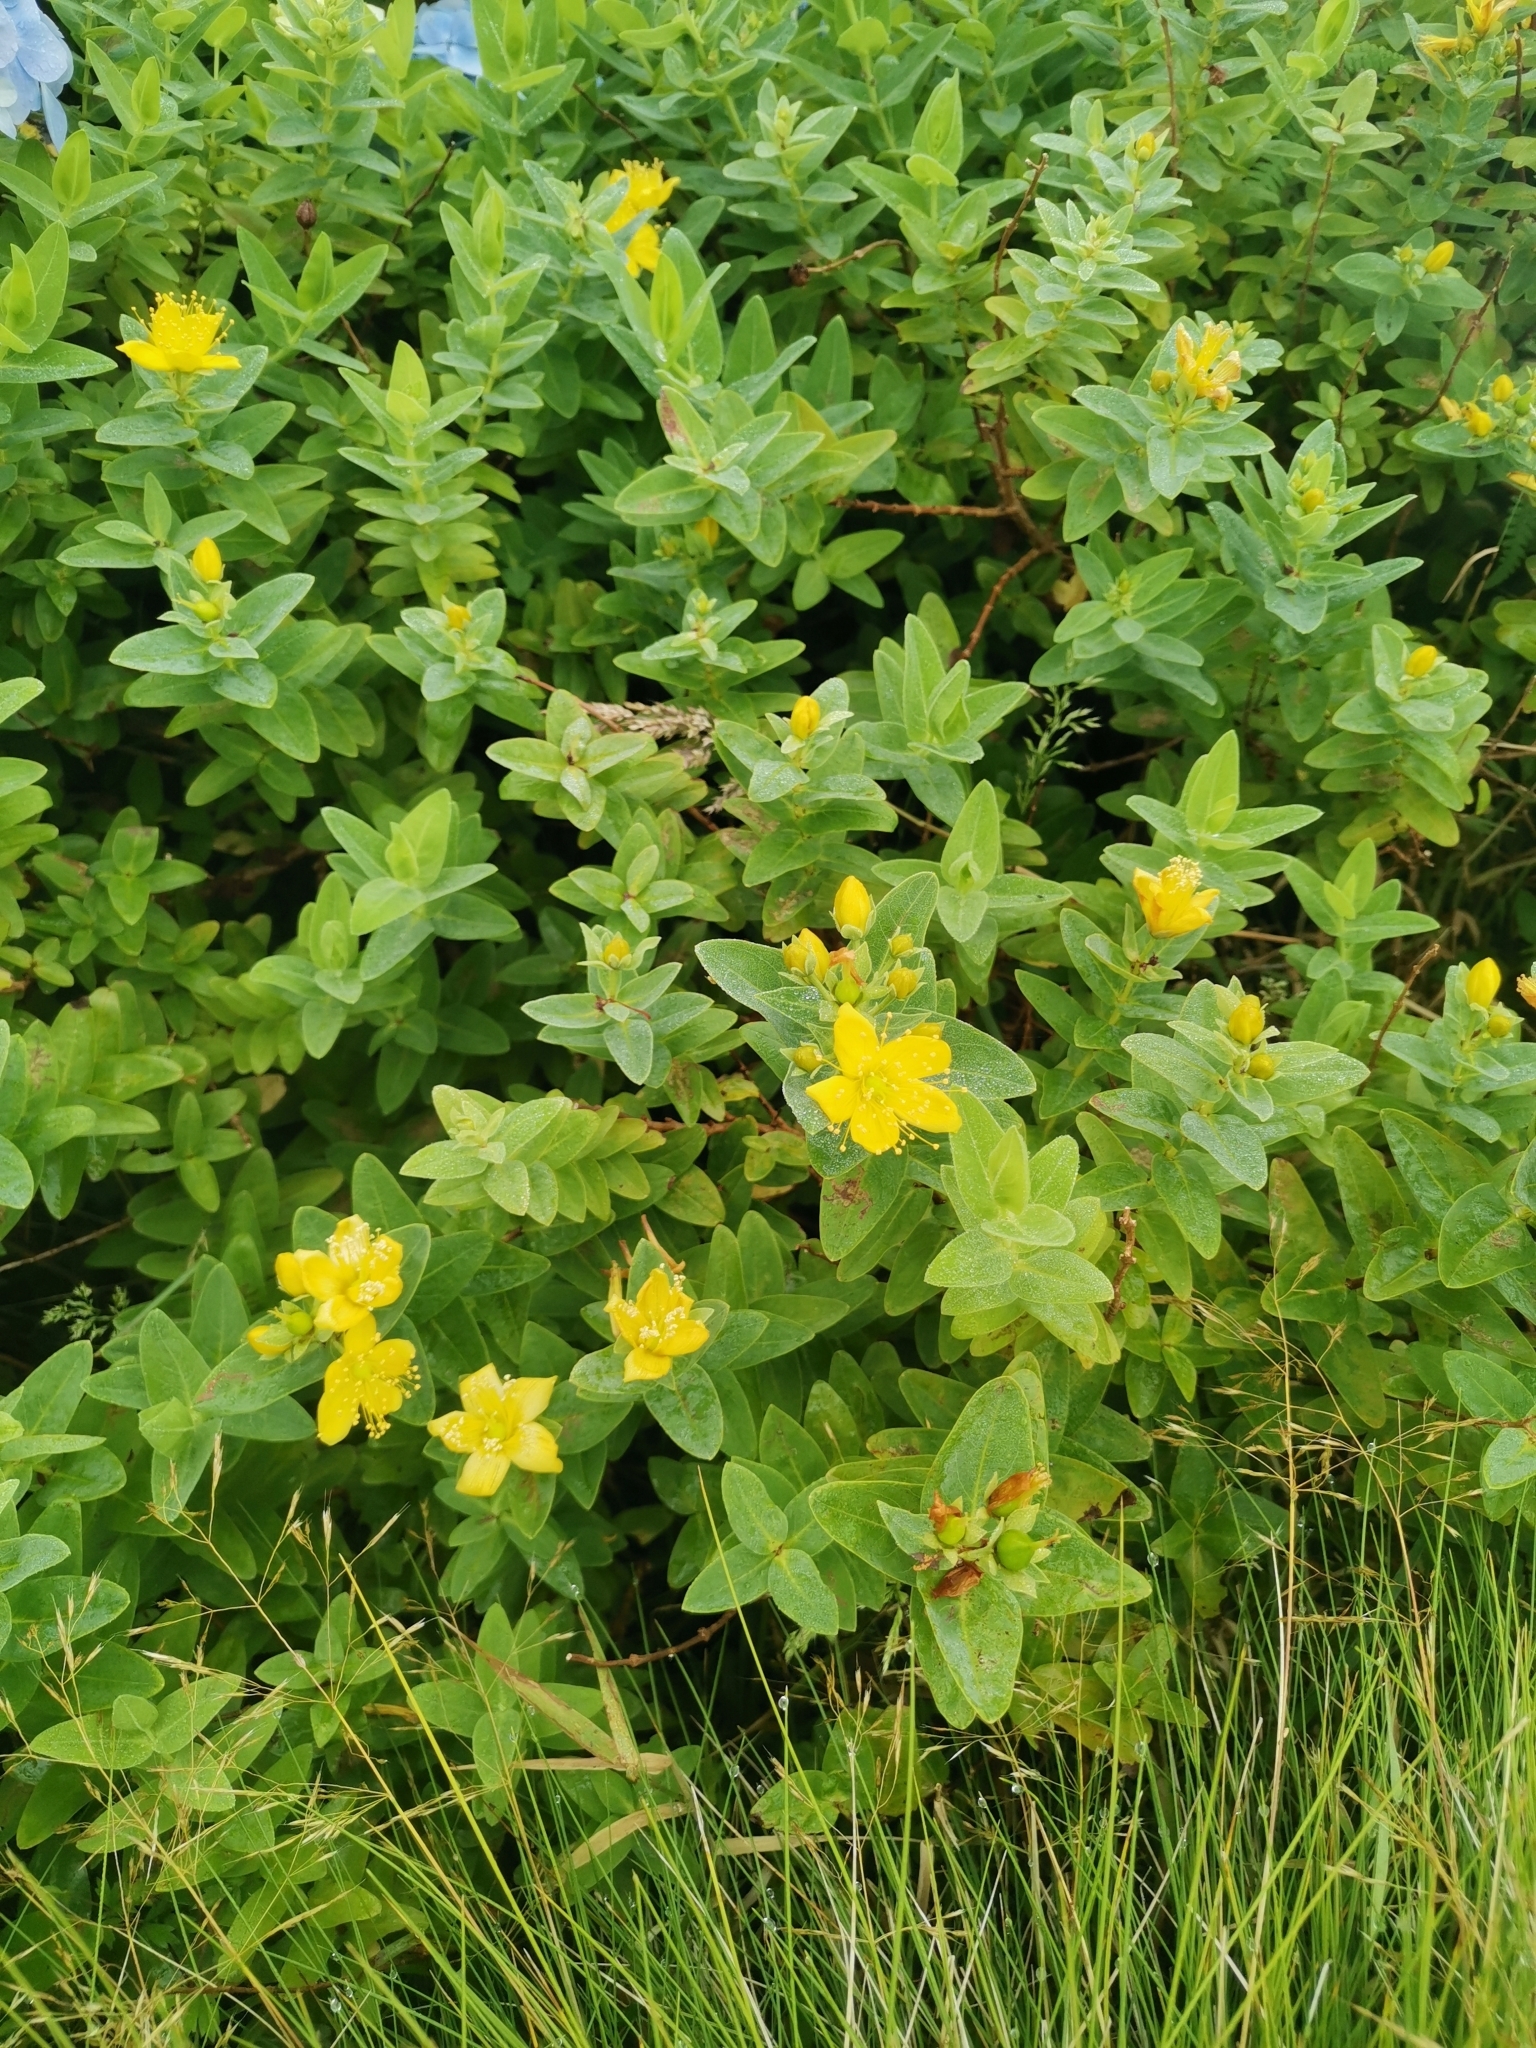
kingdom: Plantae
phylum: Tracheophyta
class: Magnoliopsida
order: Malpighiales
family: Hypericaceae
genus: Hypericum
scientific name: Hypericum foliosum
